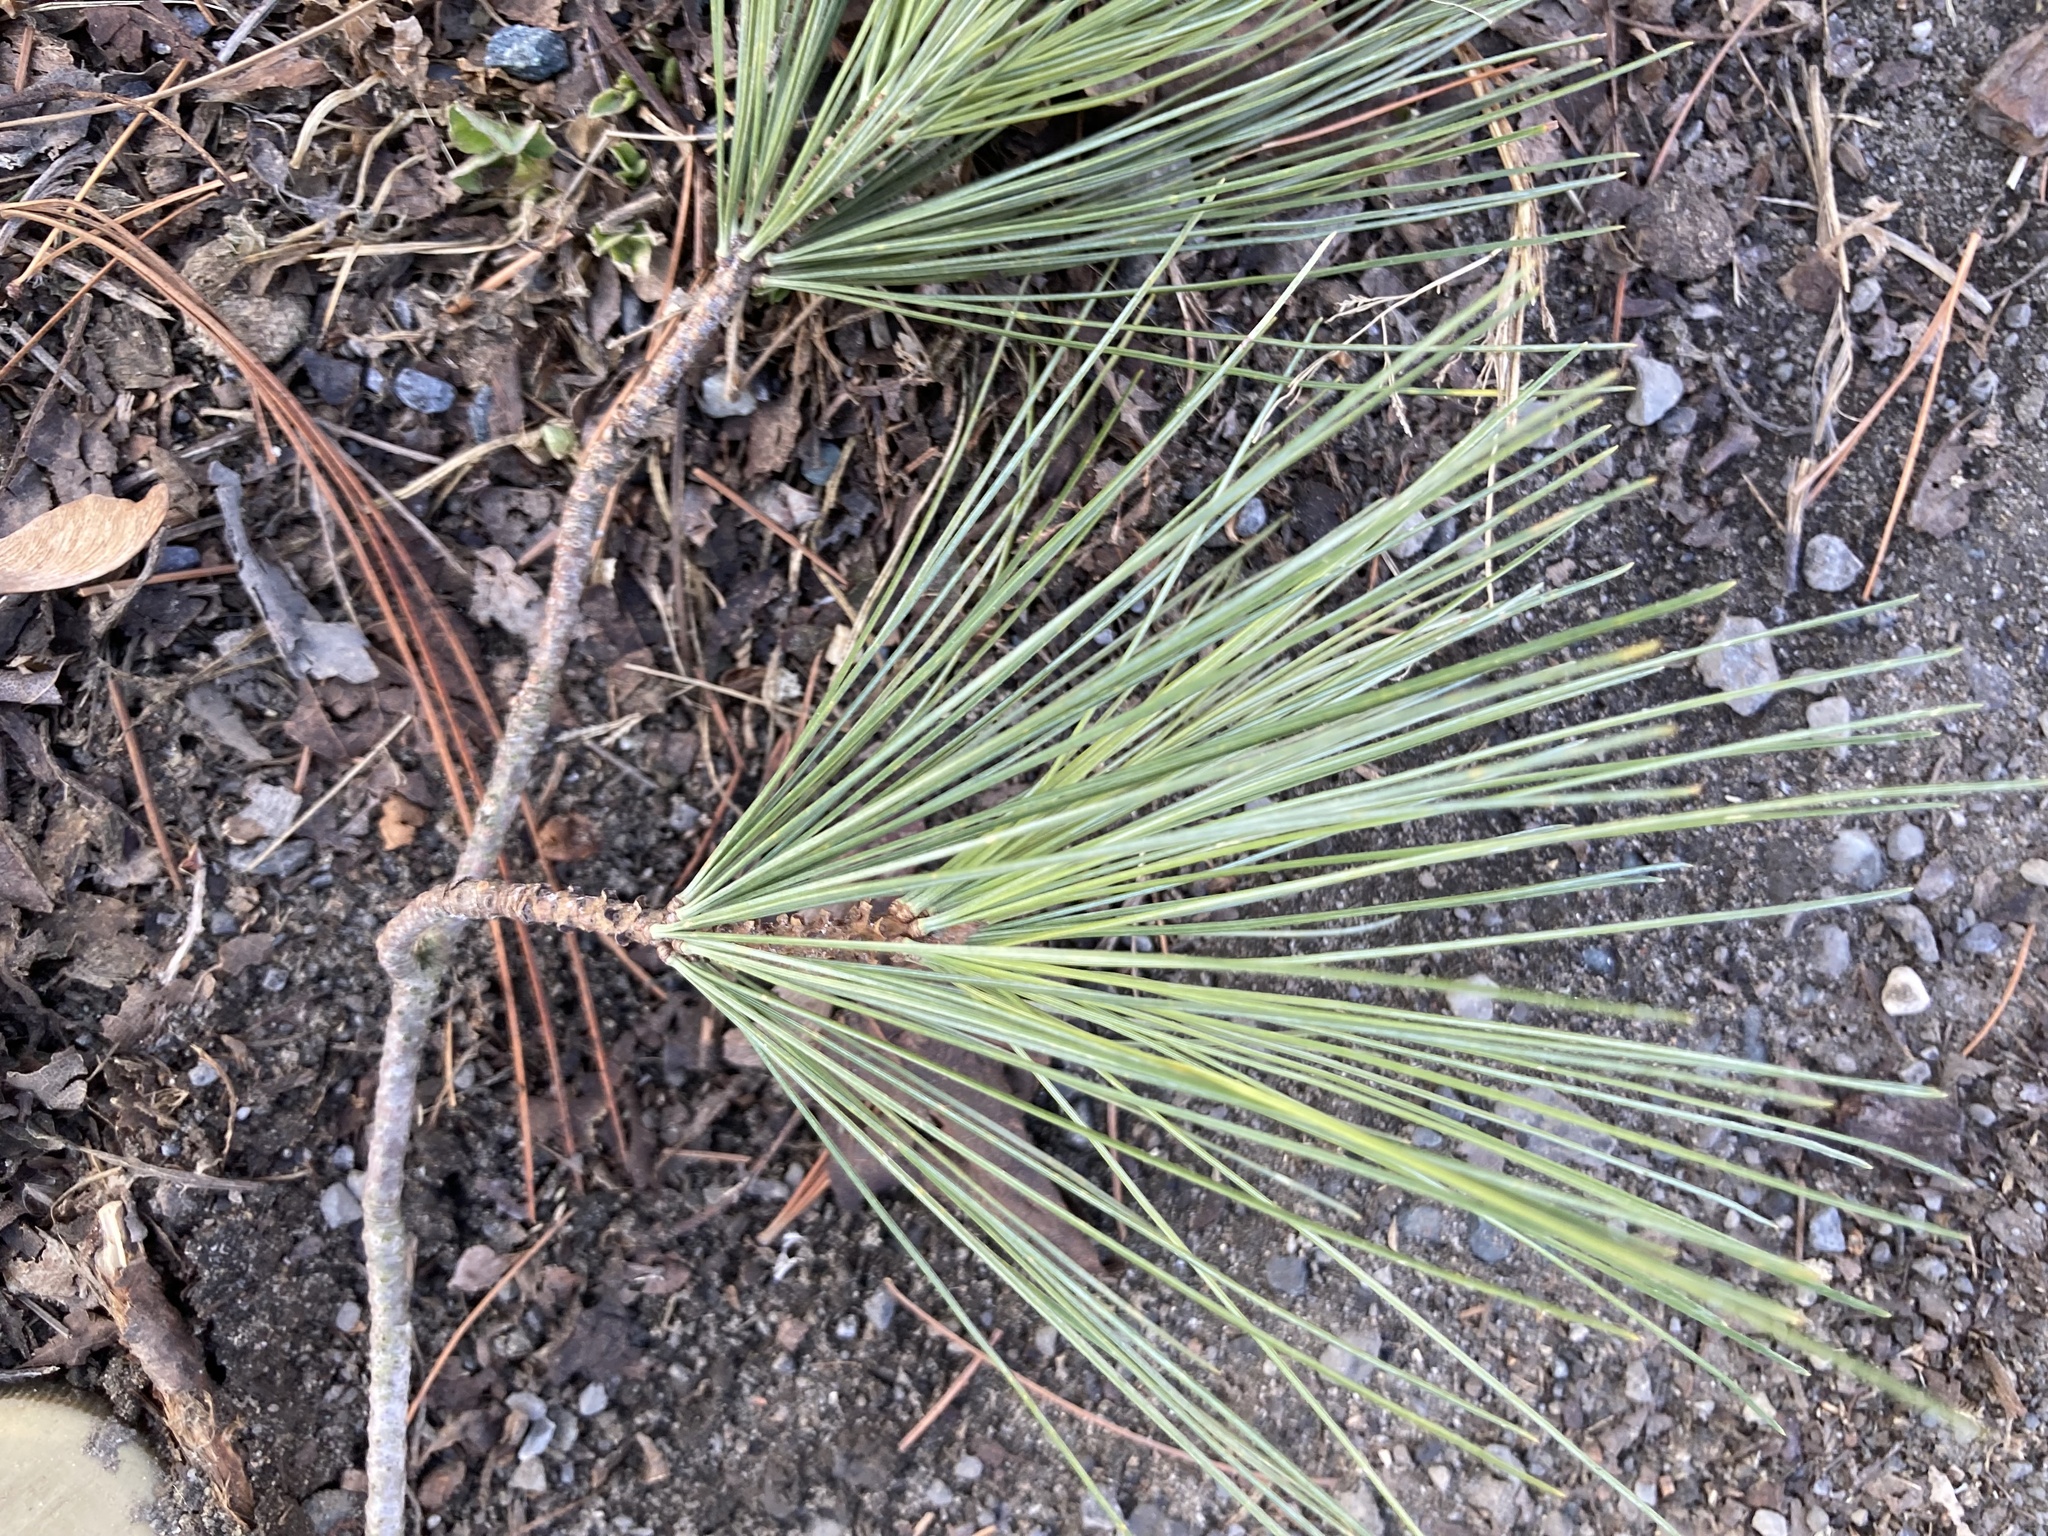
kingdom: Plantae
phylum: Tracheophyta
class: Pinopsida
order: Pinales
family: Pinaceae
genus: Pinus
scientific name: Pinus strobus
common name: Weymouth pine
